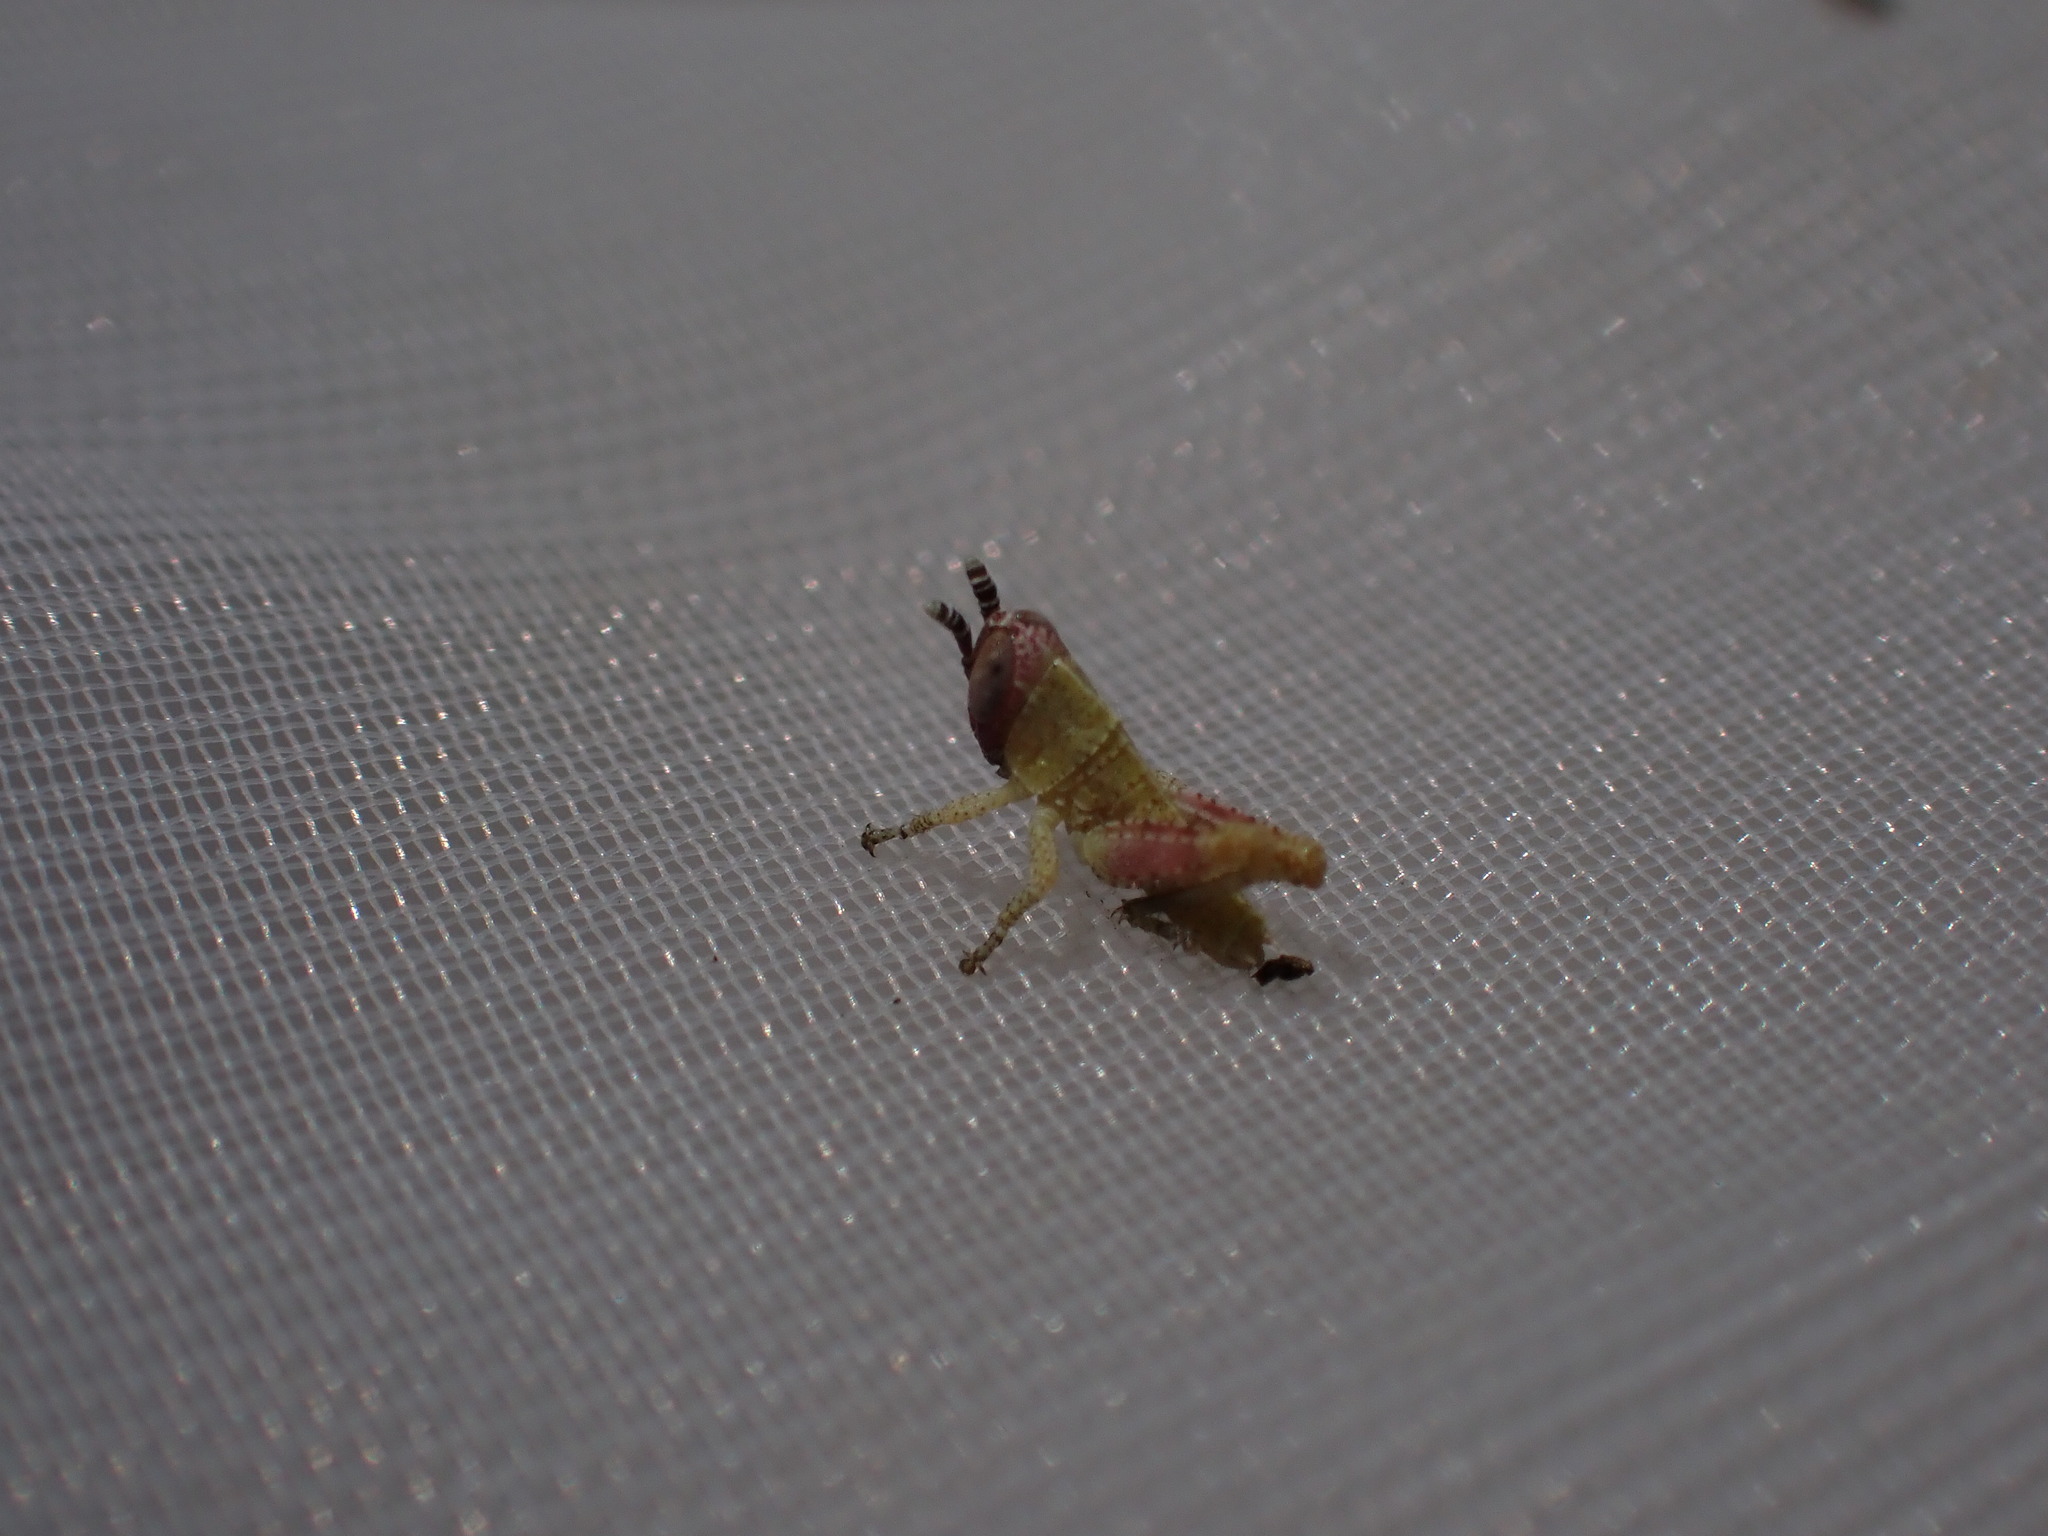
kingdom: Animalia
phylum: Arthropoda
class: Insecta
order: Orthoptera
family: Acrididae
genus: Pezotettix
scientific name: Pezotettix giornae
